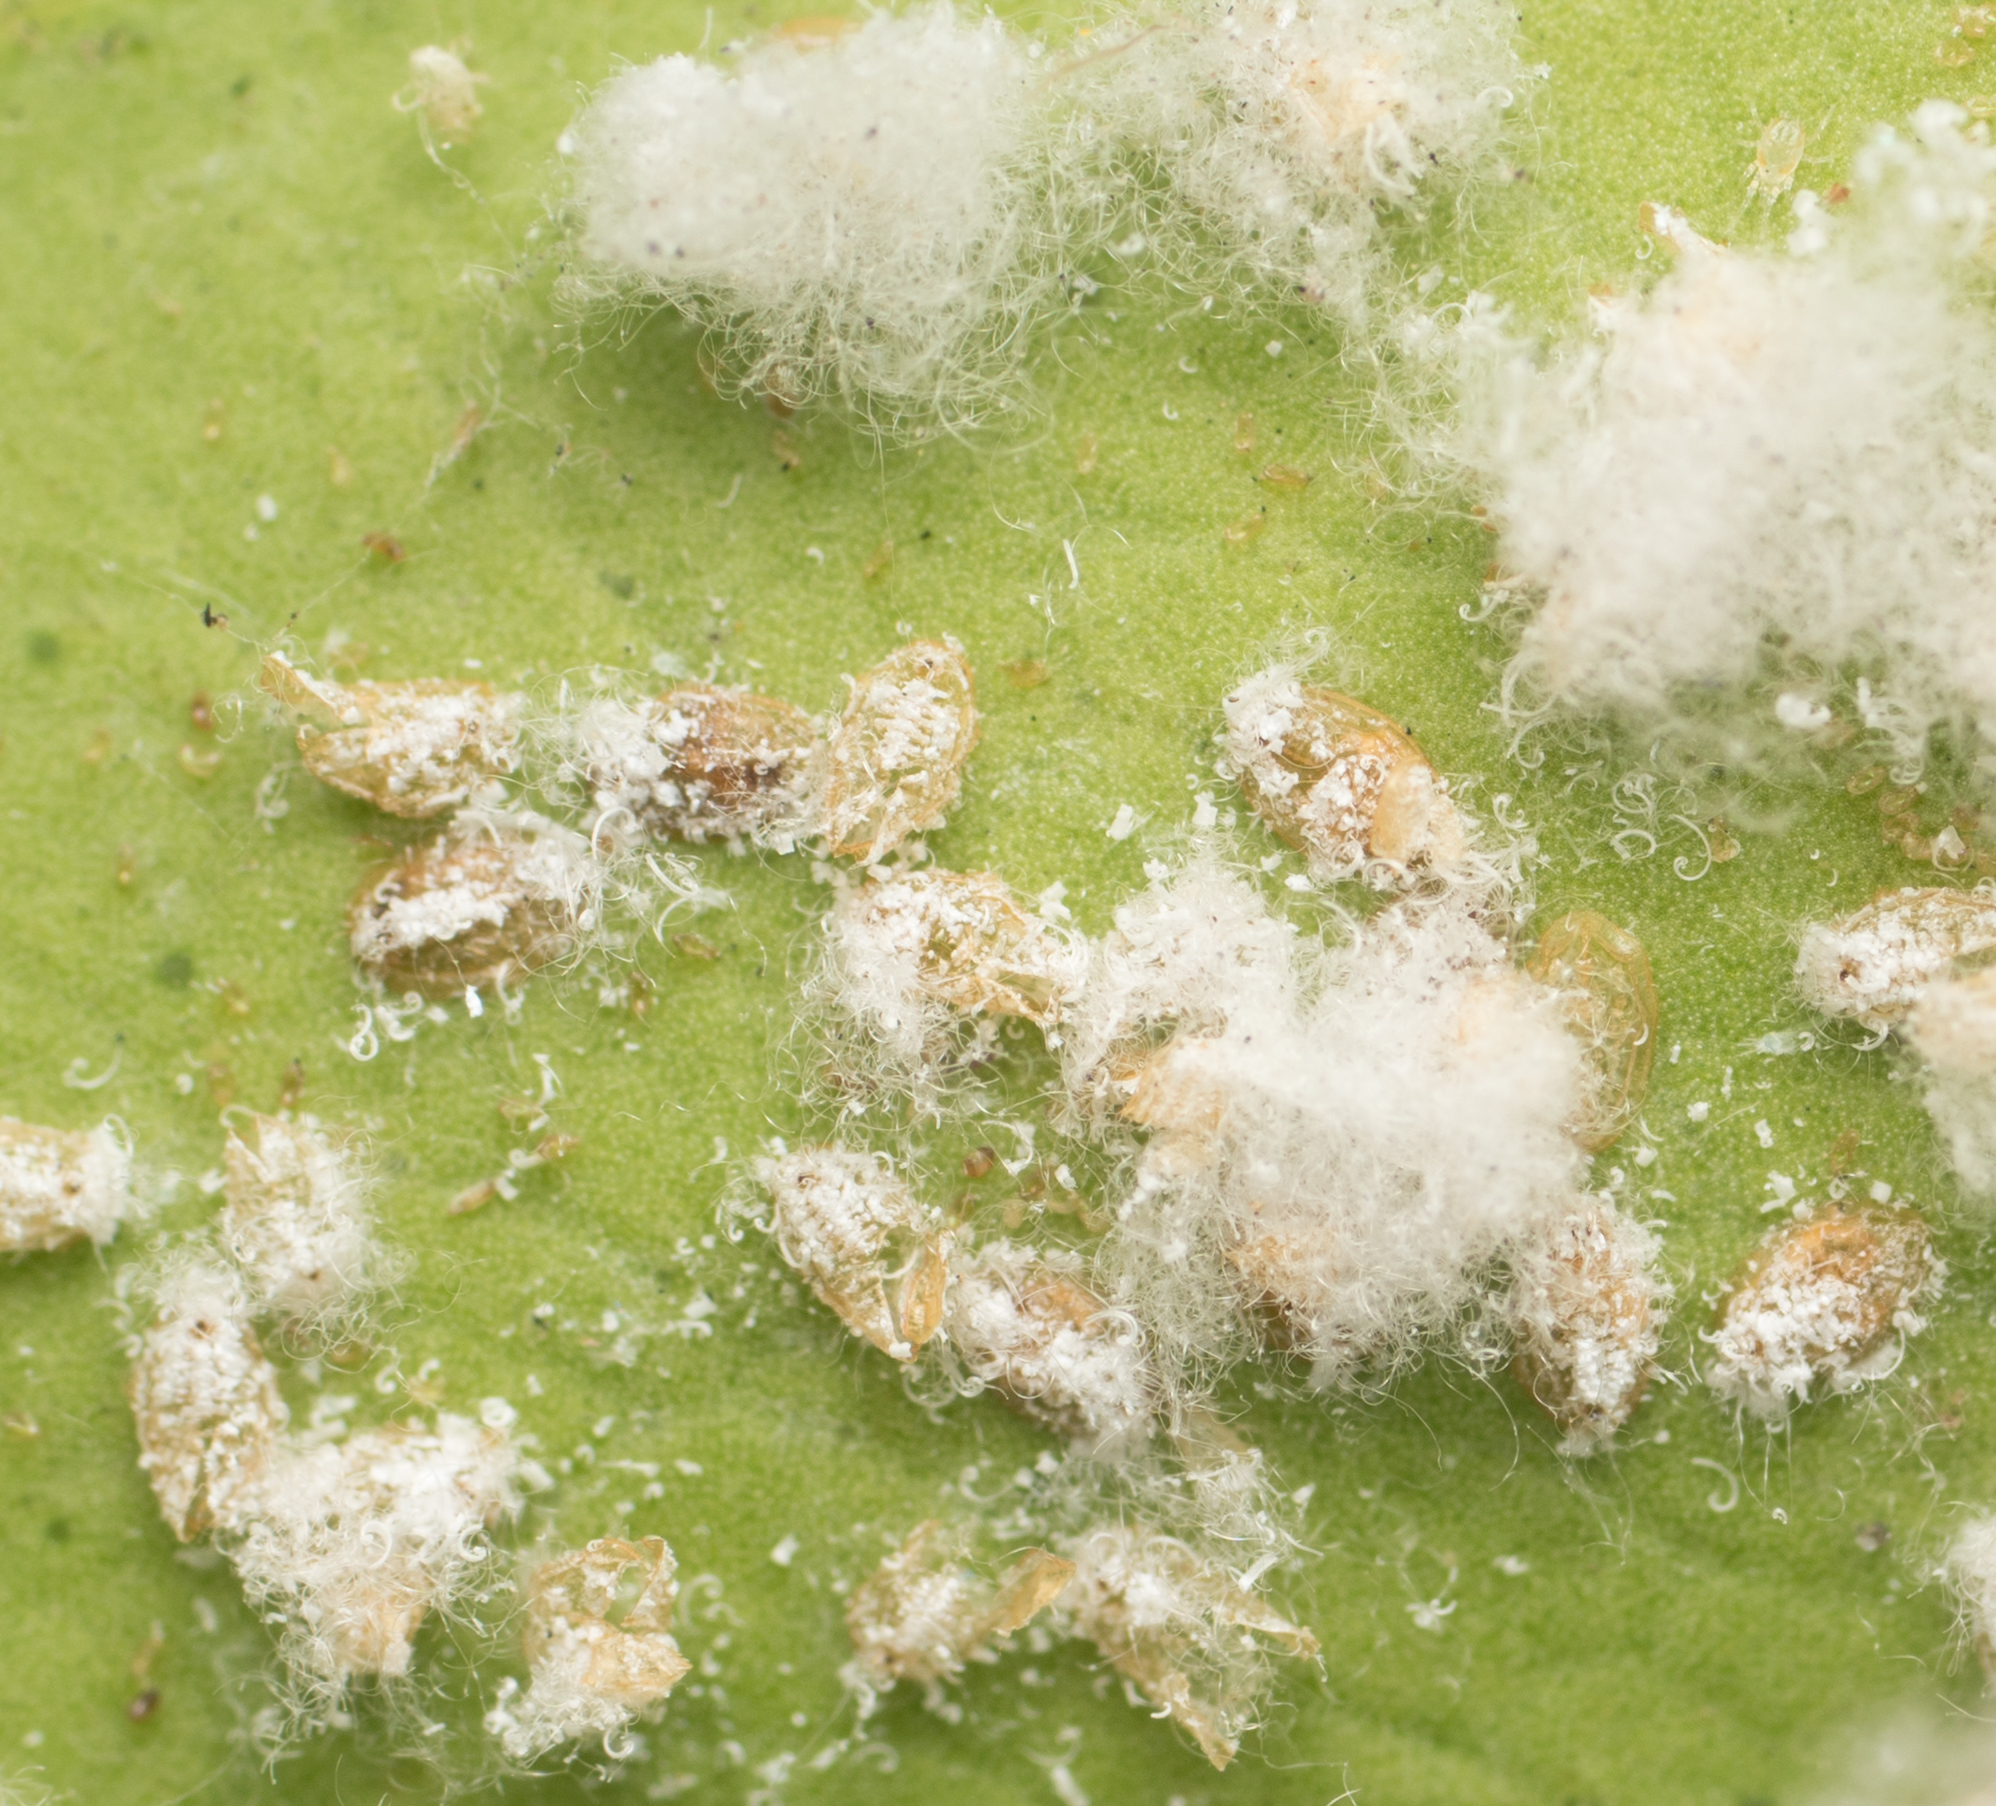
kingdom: Animalia
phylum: Arthropoda
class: Insecta
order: Hemiptera
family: Aleyrodidae
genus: Aleurothrixus
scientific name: Aleurothrixus floccosus
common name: Whitefly
